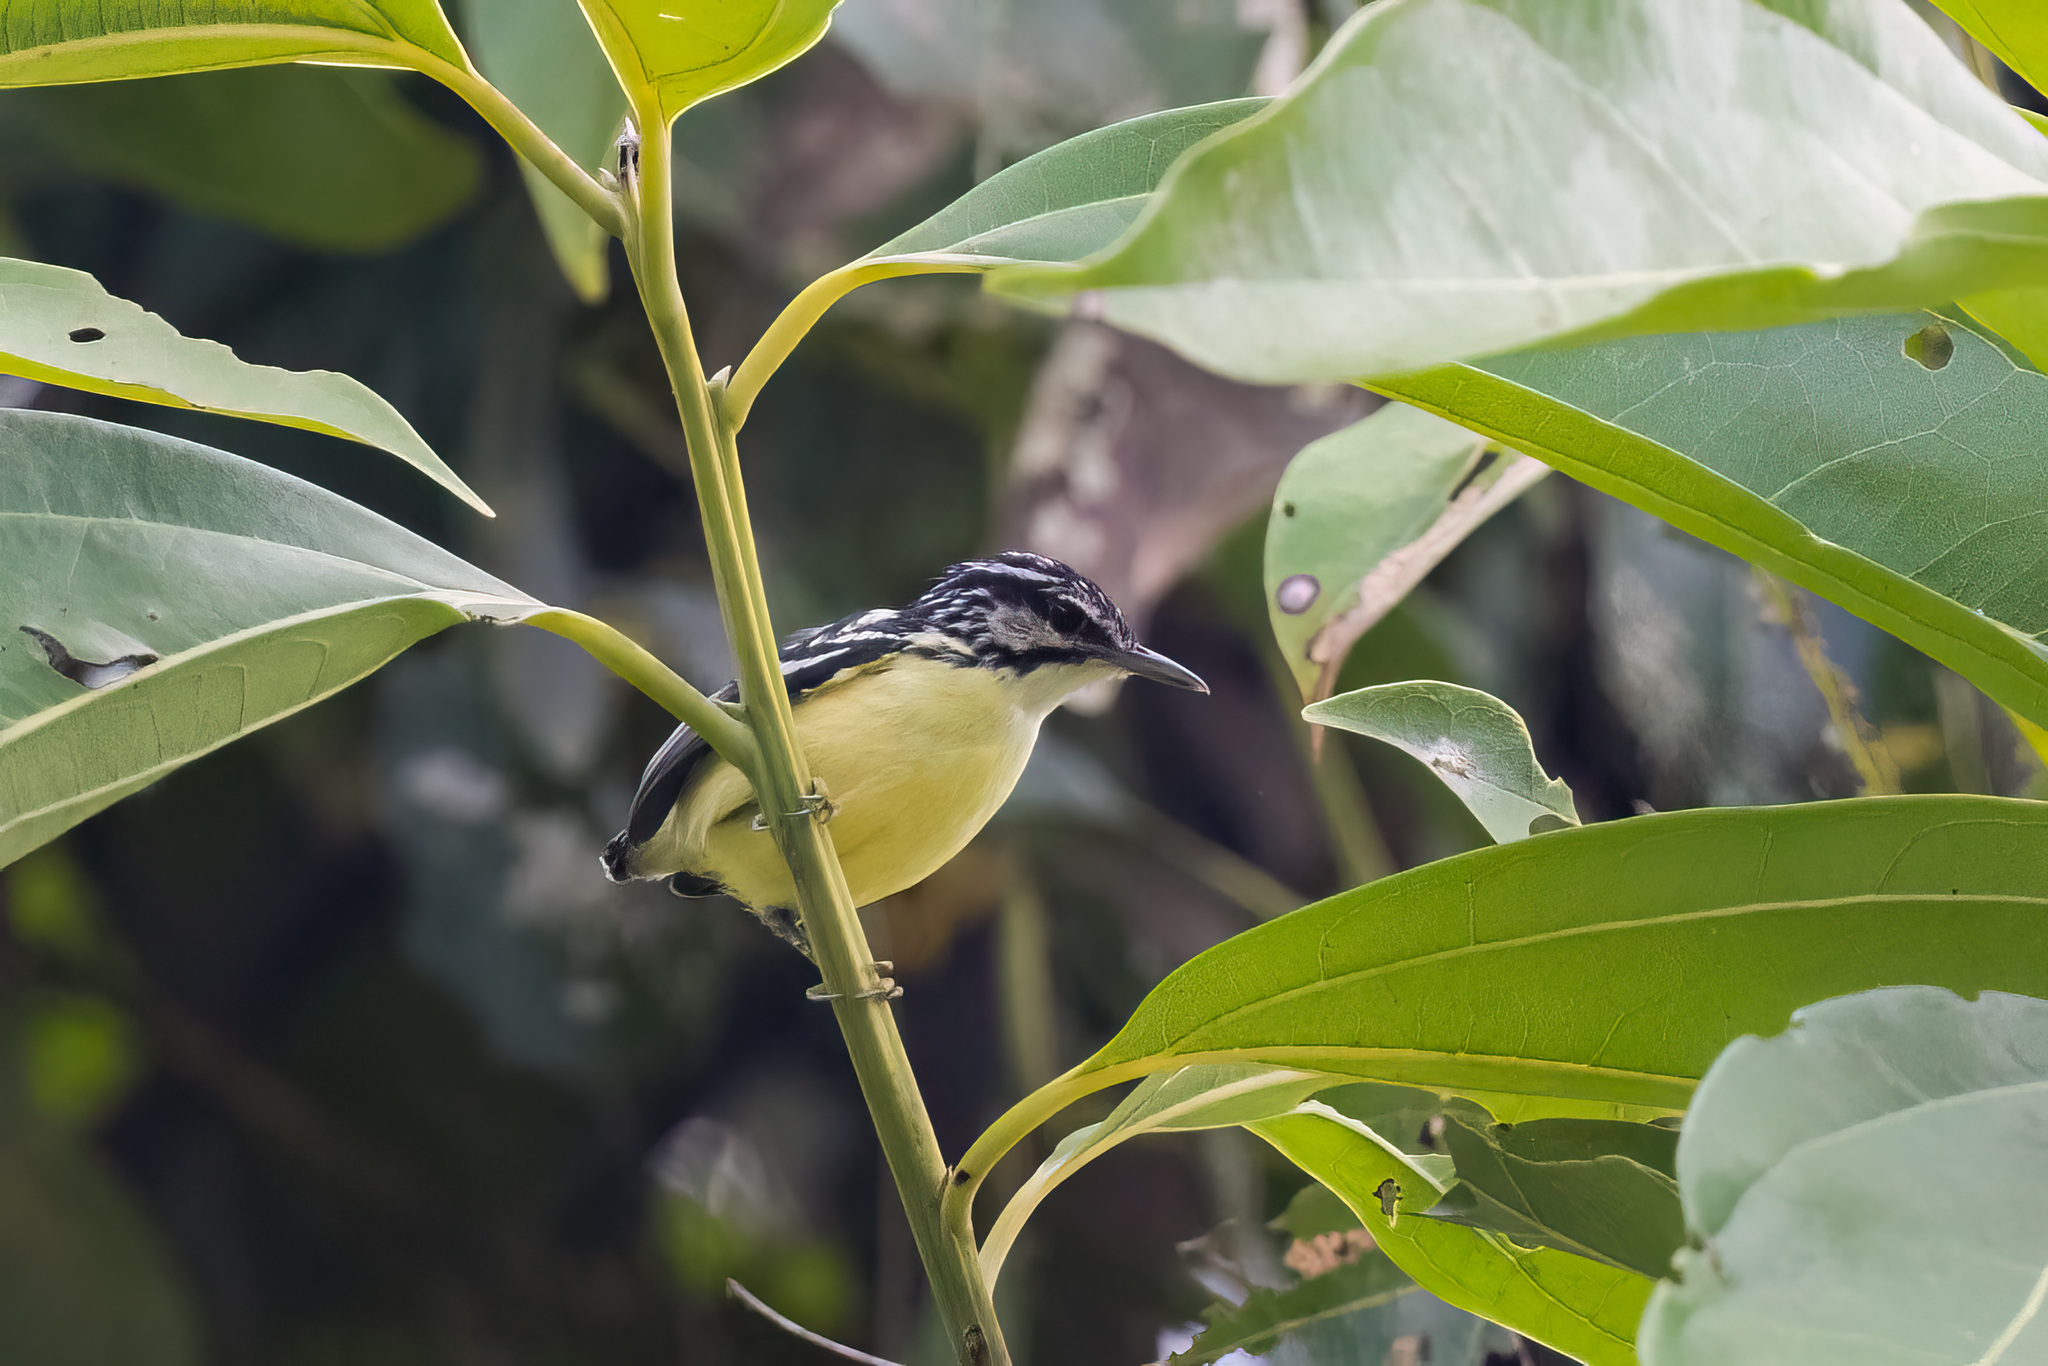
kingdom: Animalia
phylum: Chordata
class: Aves
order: Passeriformes
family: Thamnophilidae
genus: Myrmotherula
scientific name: Myrmotherula ignota
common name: Moustached antwren
